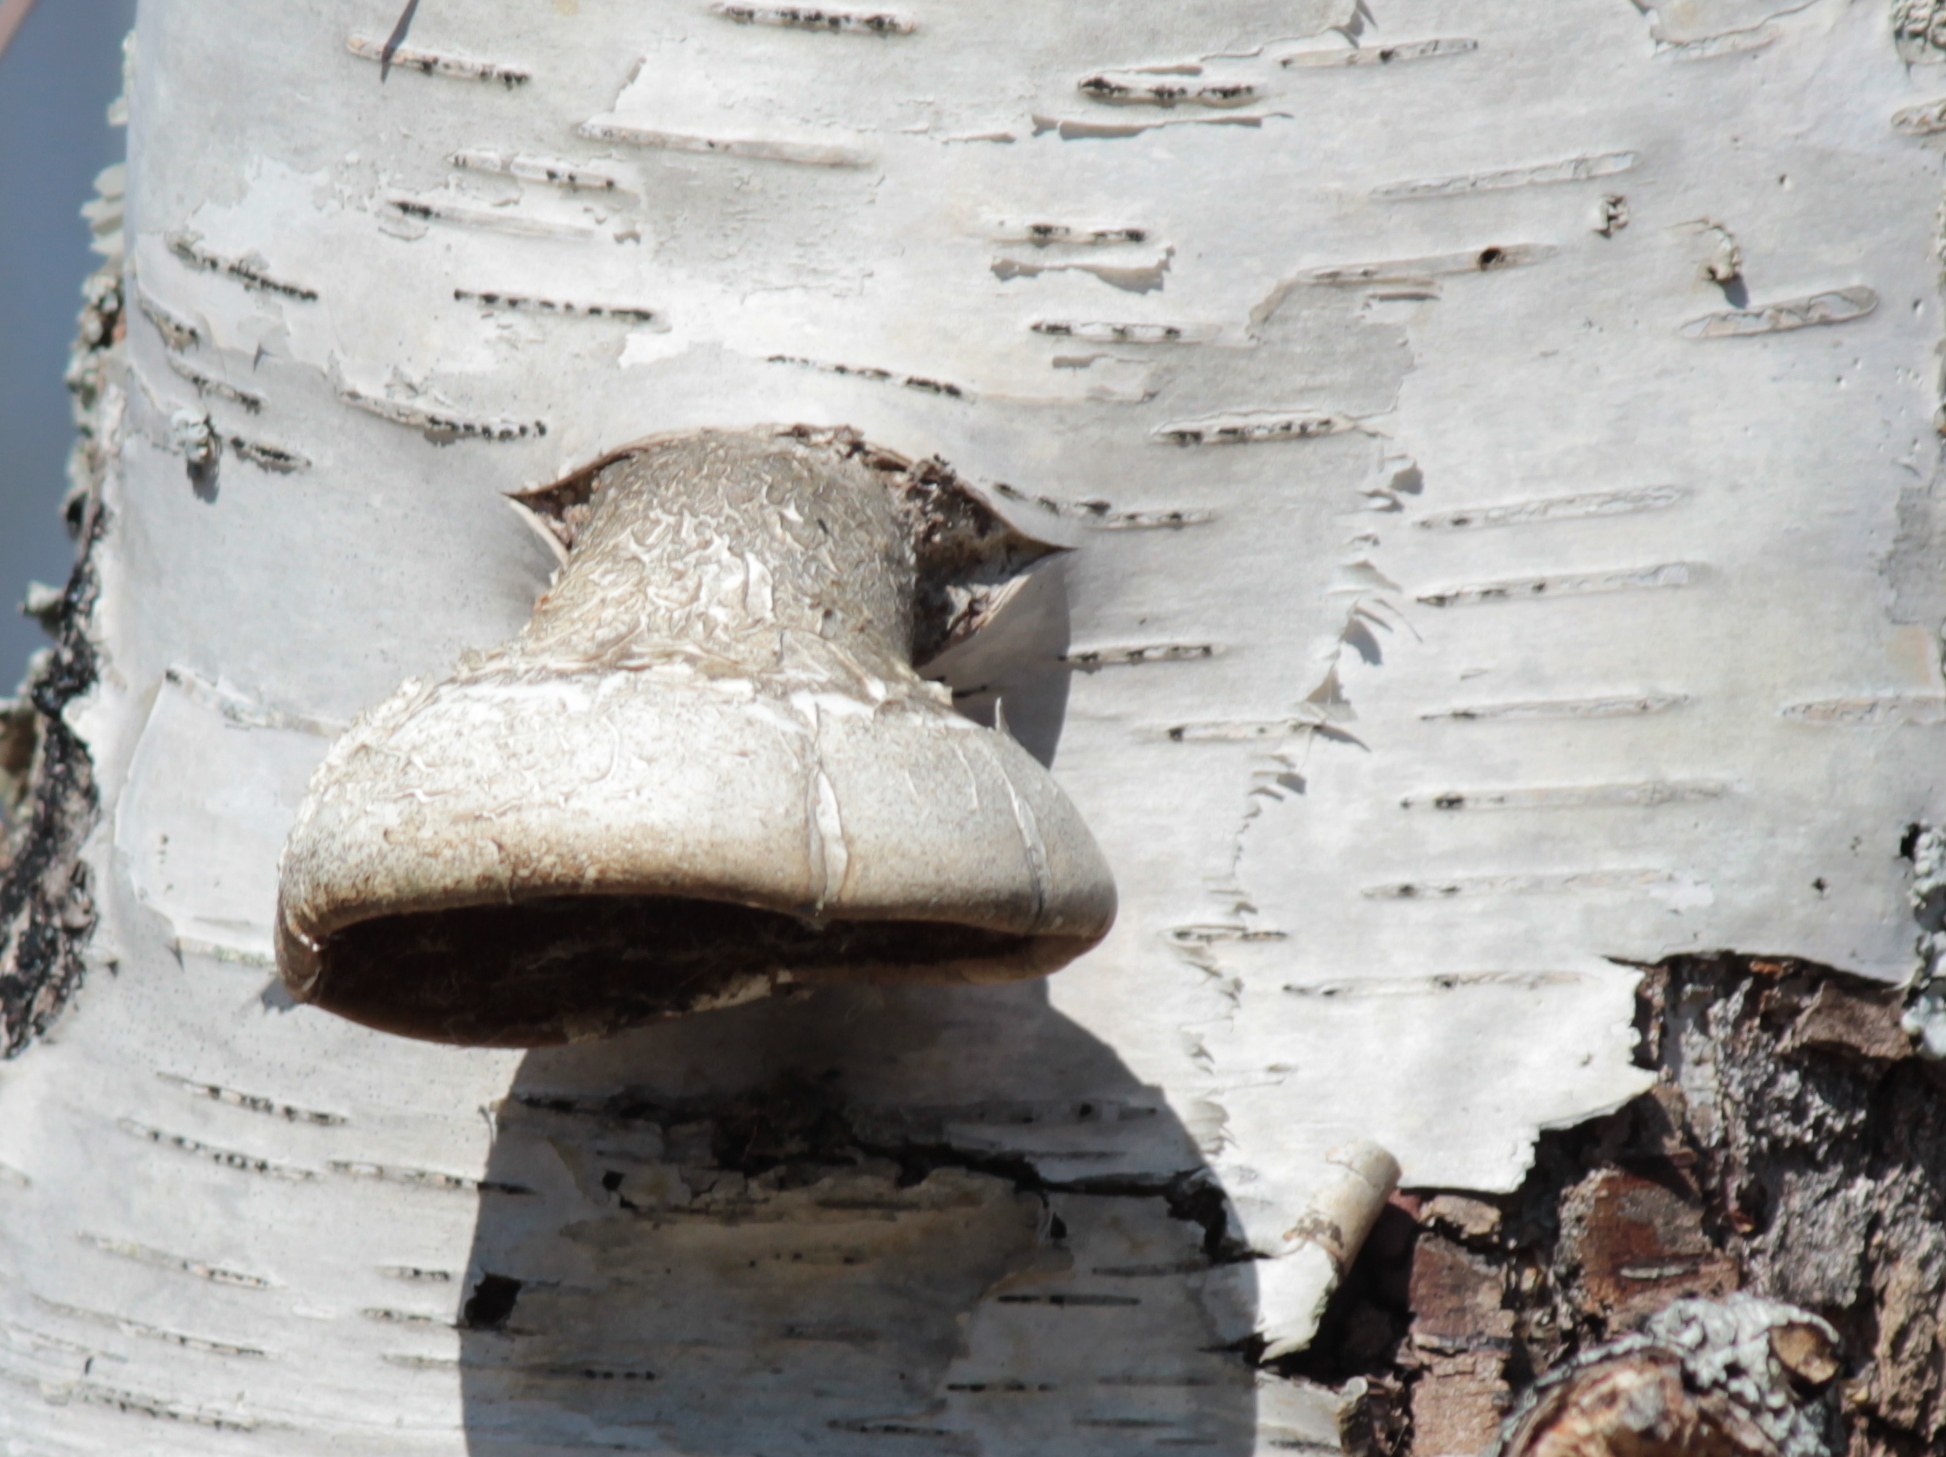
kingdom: Fungi
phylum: Basidiomycota
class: Agaricomycetes
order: Polyporales
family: Fomitopsidaceae
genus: Fomitopsis
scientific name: Fomitopsis betulina
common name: Birch polypore
